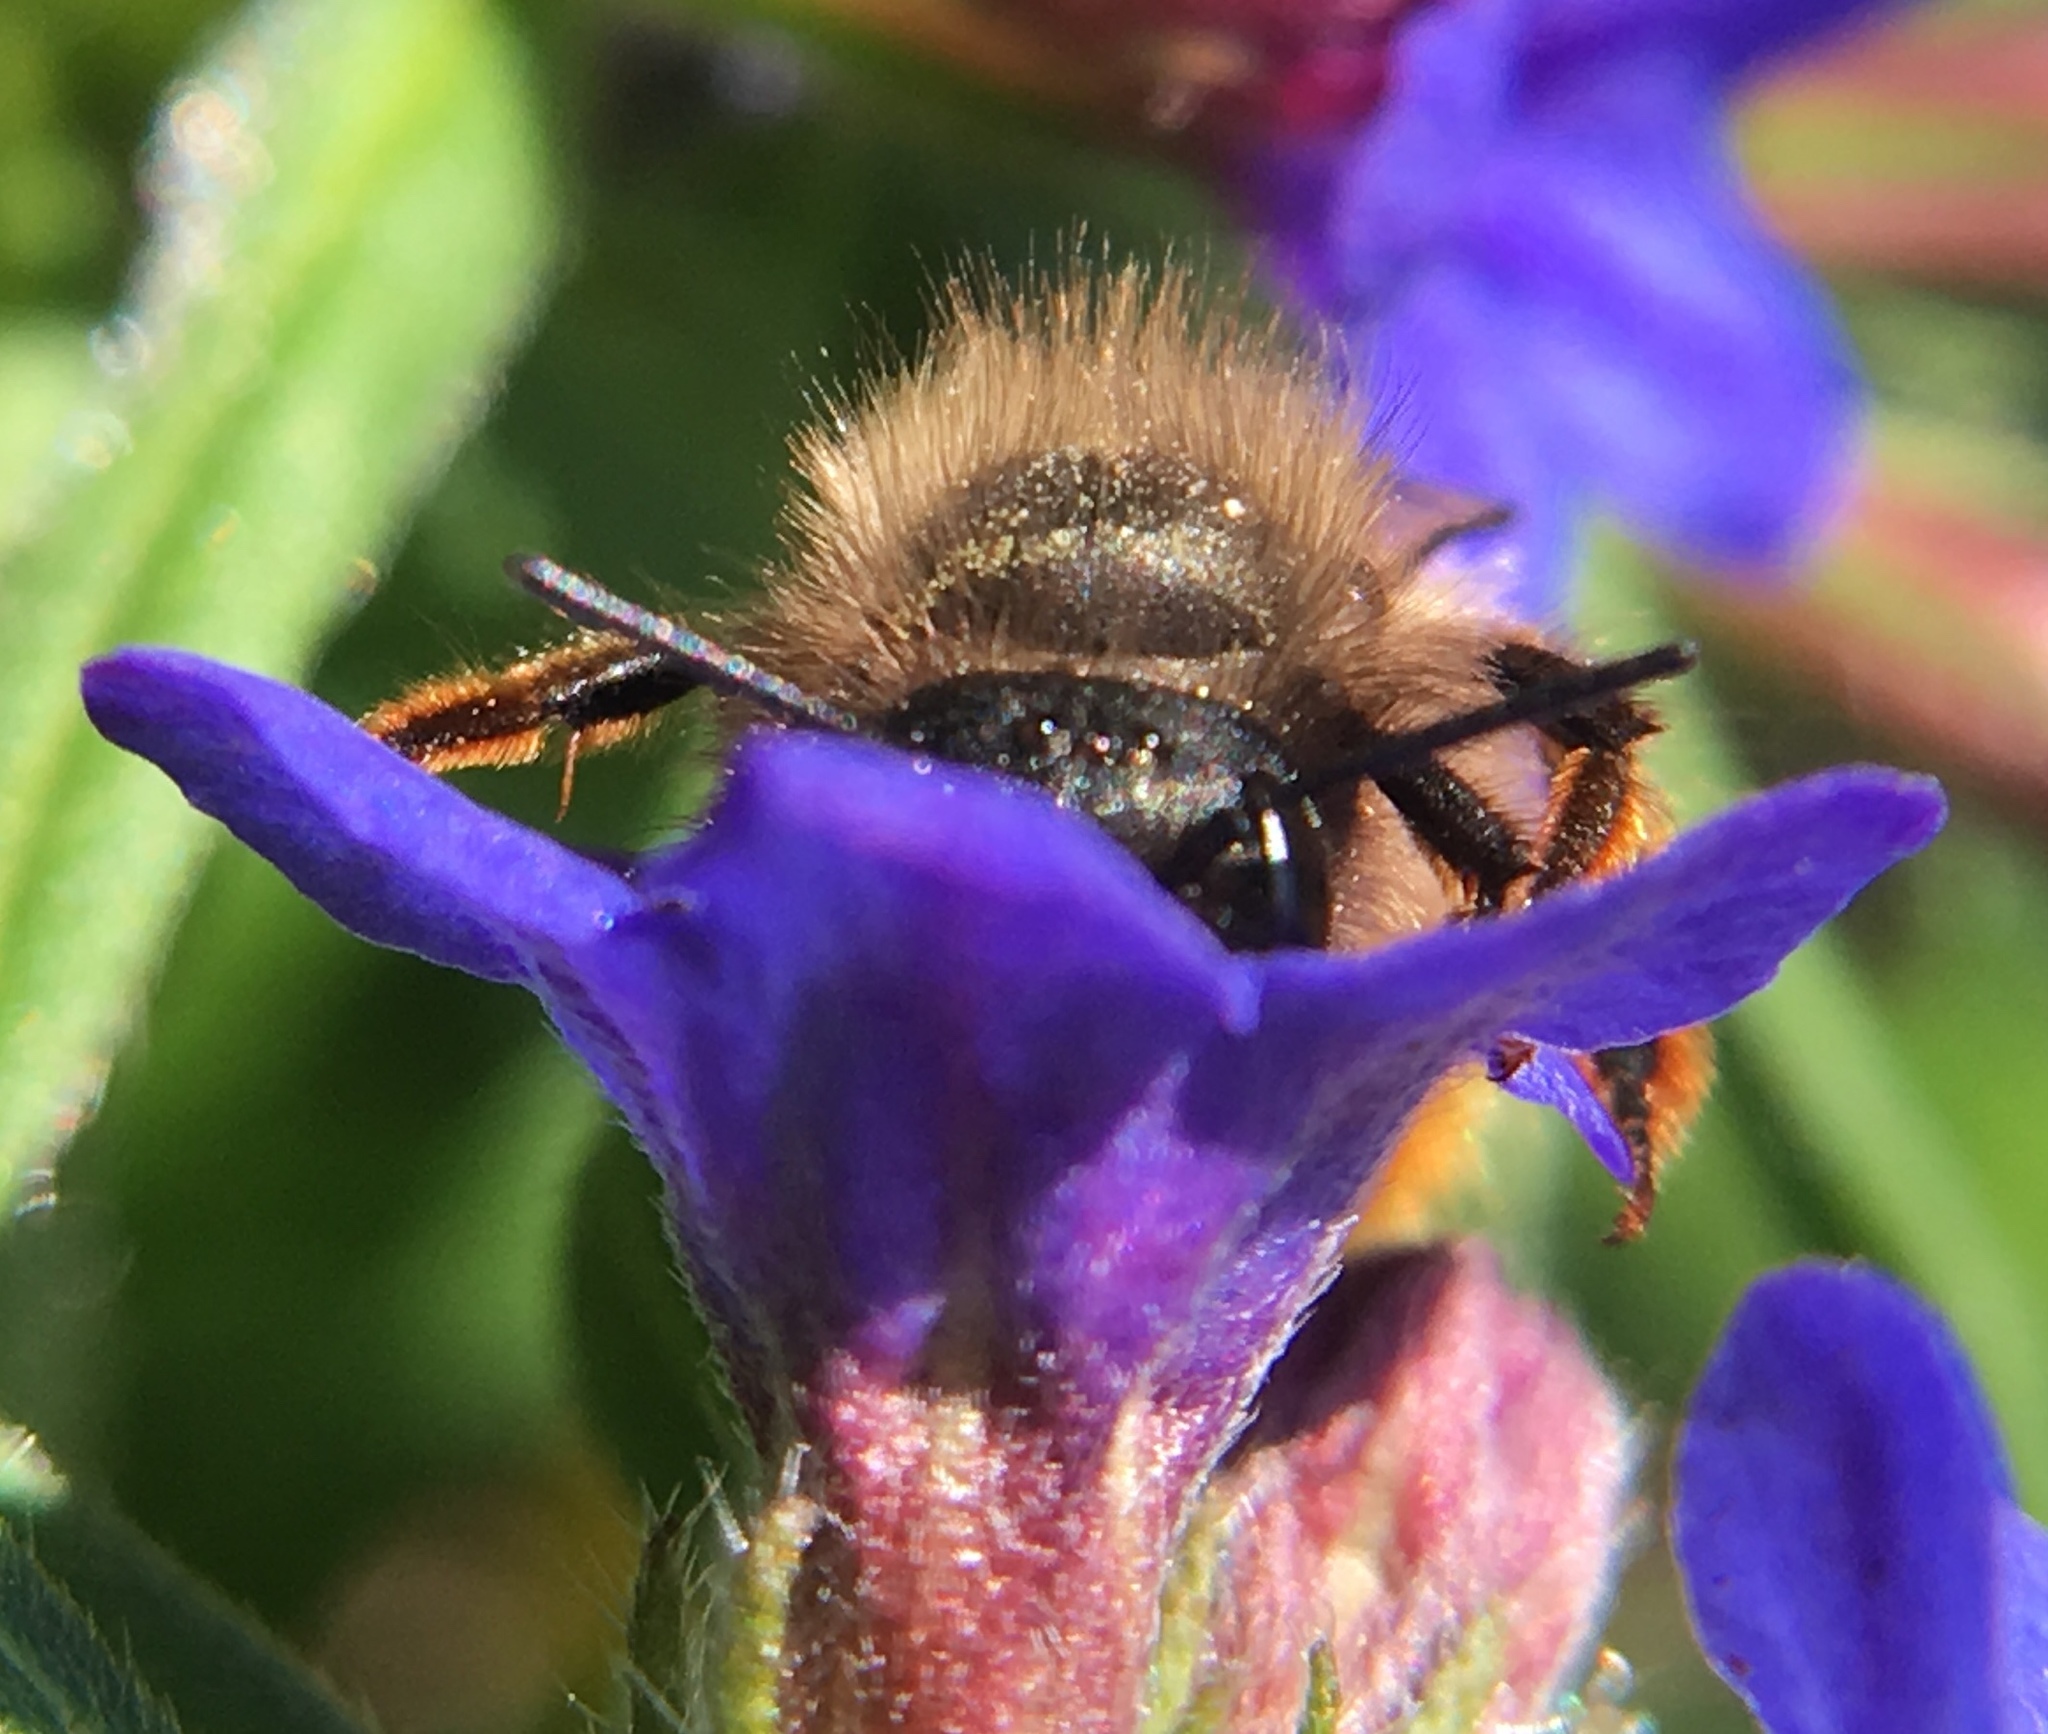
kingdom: Animalia
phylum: Arthropoda
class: Insecta
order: Hymenoptera
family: Megachilidae
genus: Osmia
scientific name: Osmia bicornis
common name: Red mason bee
